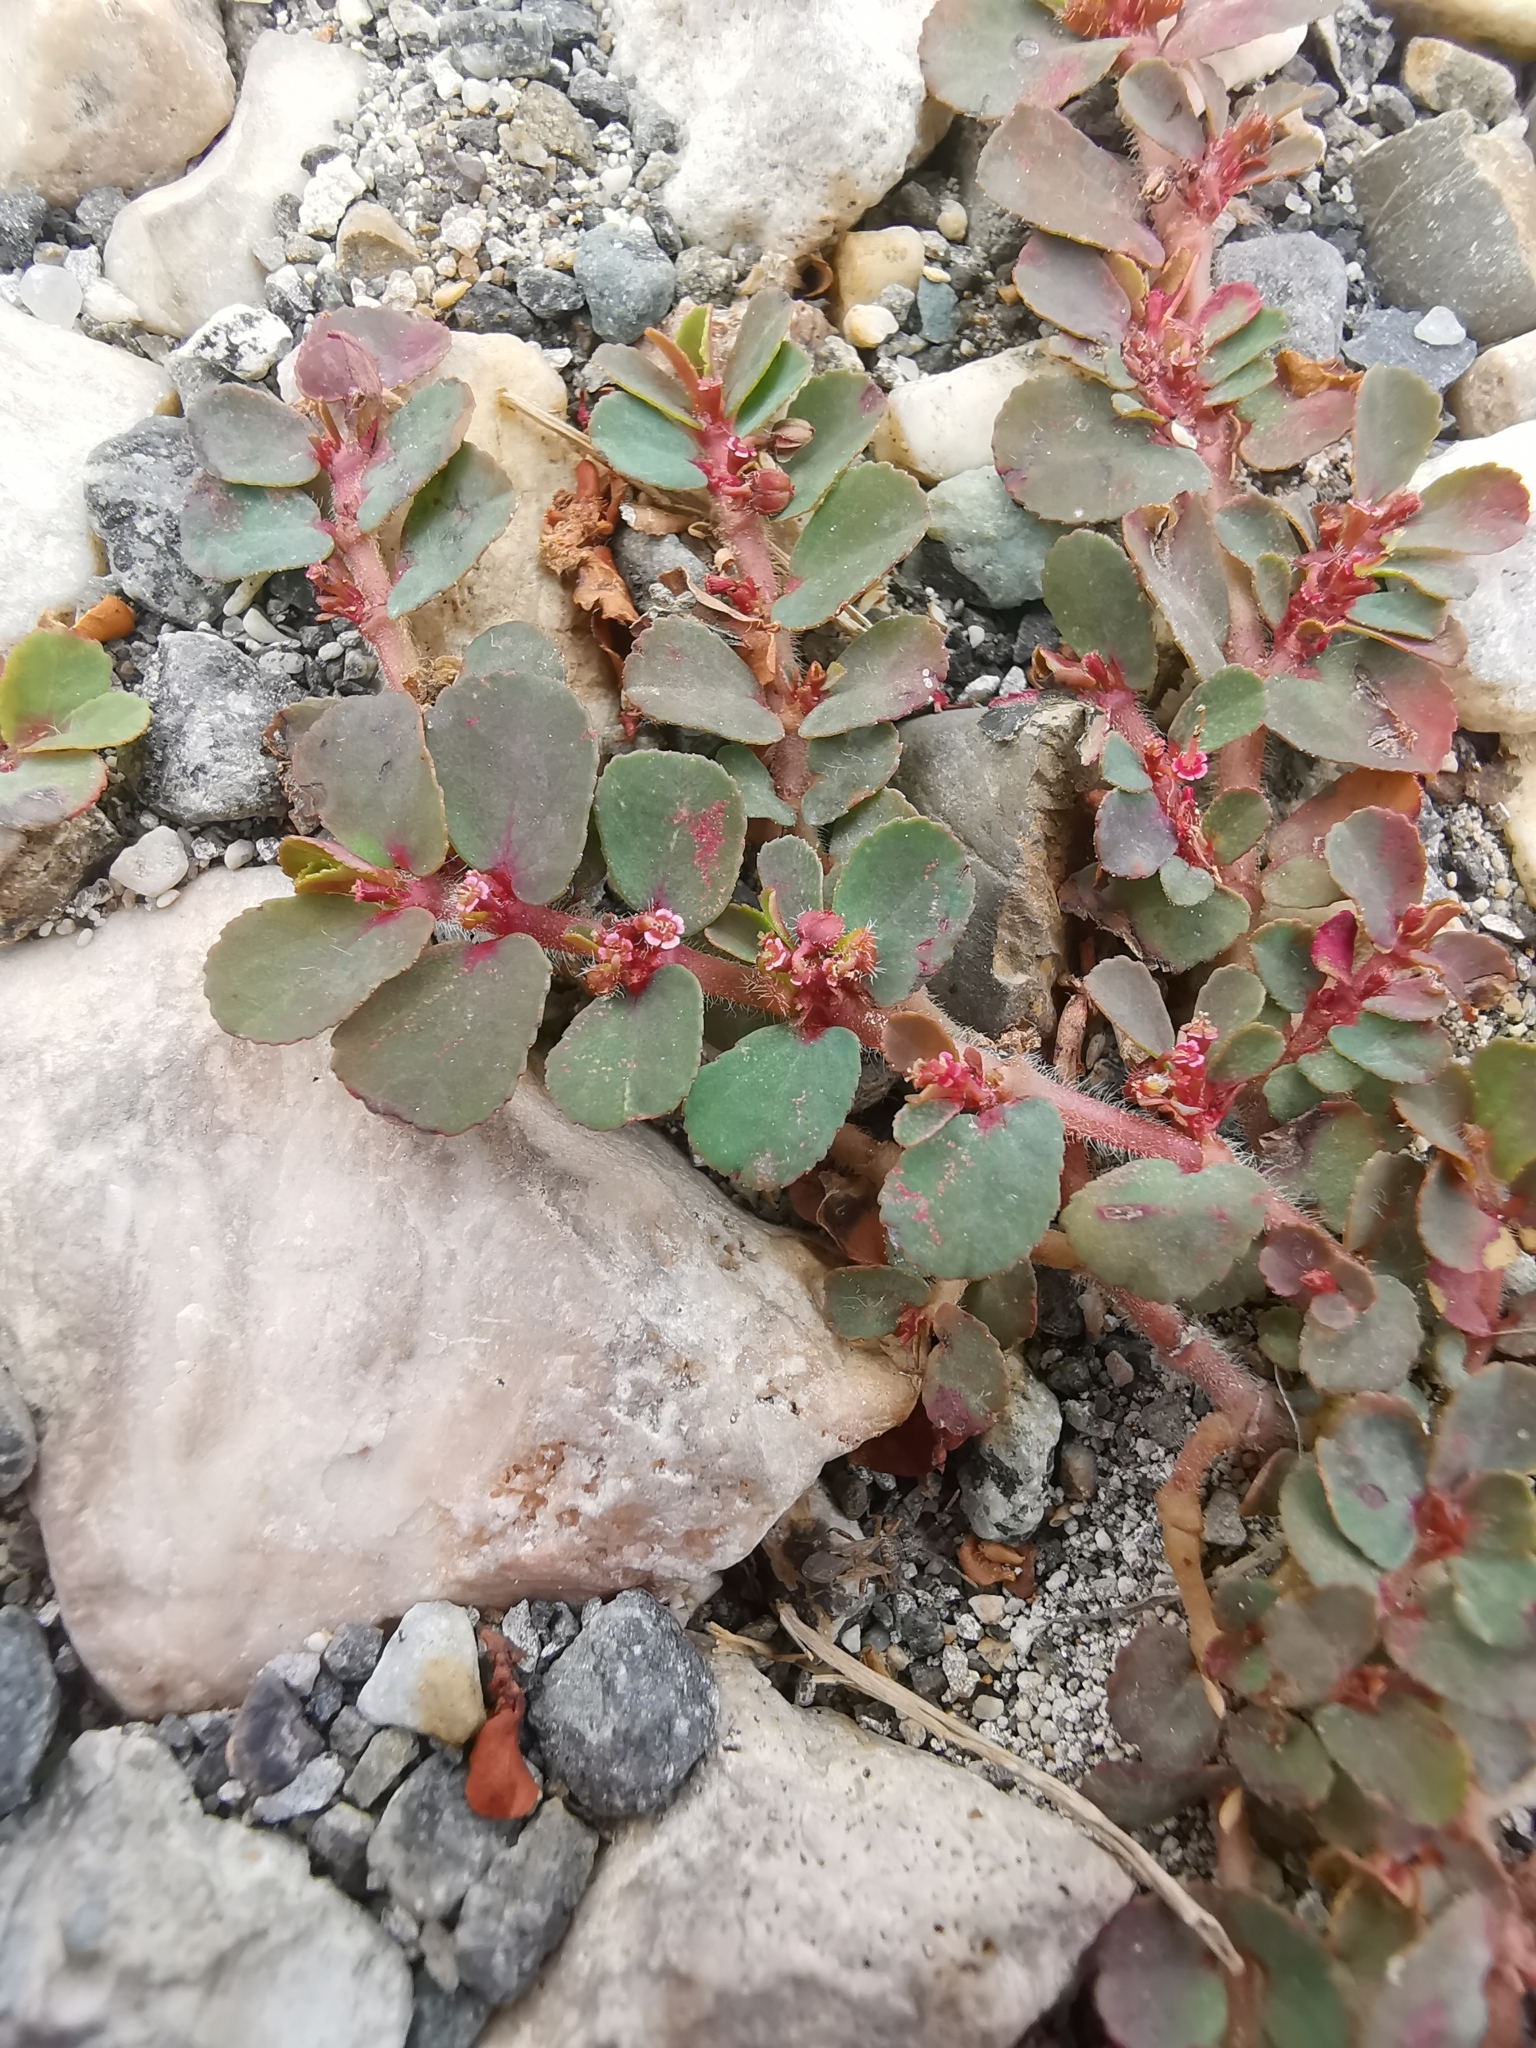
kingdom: Plantae
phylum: Tracheophyta
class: Magnoliopsida
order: Malpighiales
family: Euphorbiaceae
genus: Euphorbia
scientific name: Euphorbia mendezii
